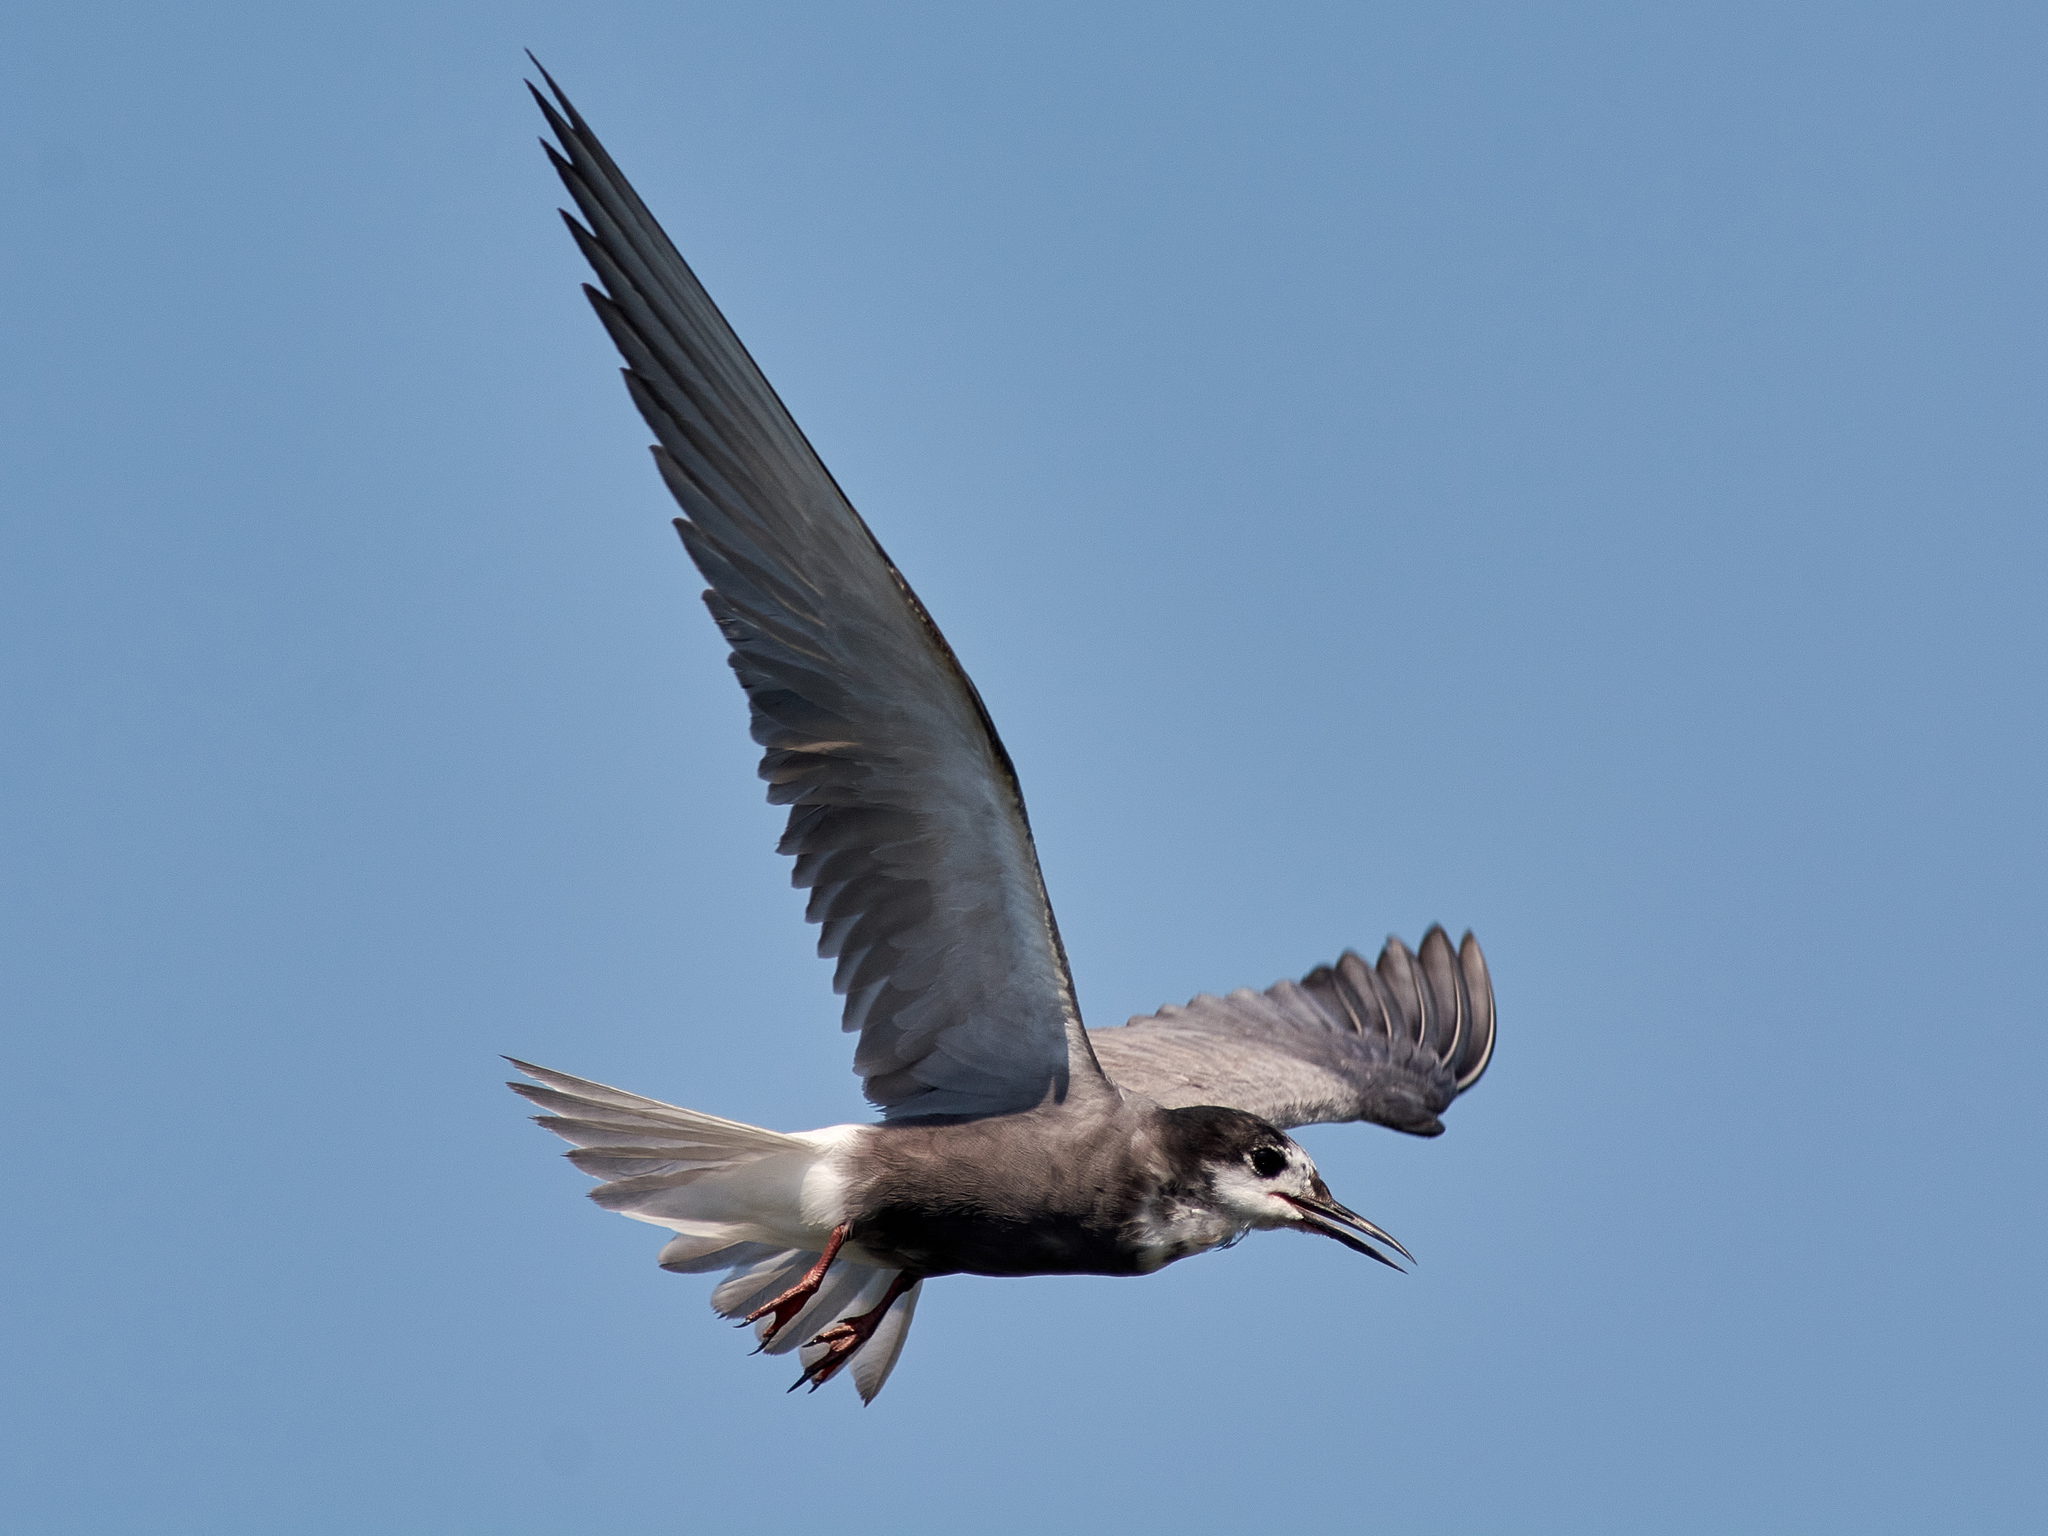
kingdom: Animalia
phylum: Chordata
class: Aves
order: Charadriiformes
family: Laridae
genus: Chlidonias
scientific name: Chlidonias niger
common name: Black tern
